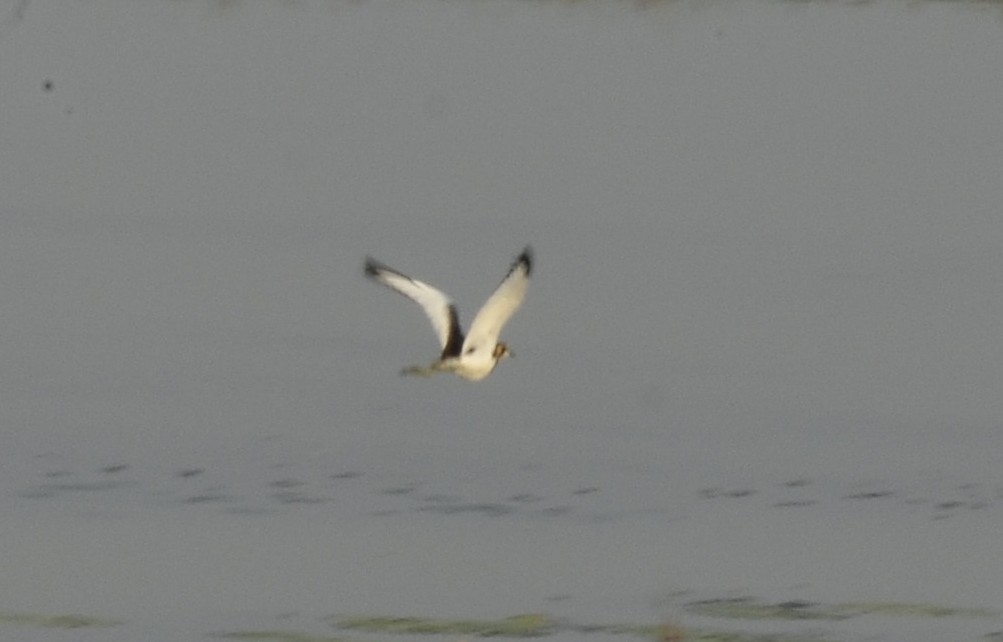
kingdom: Animalia
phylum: Chordata
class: Aves
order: Charadriiformes
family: Jacanidae
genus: Hydrophasianus
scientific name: Hydrophasianus chirurgus
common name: Pheasant-tailed jacana
